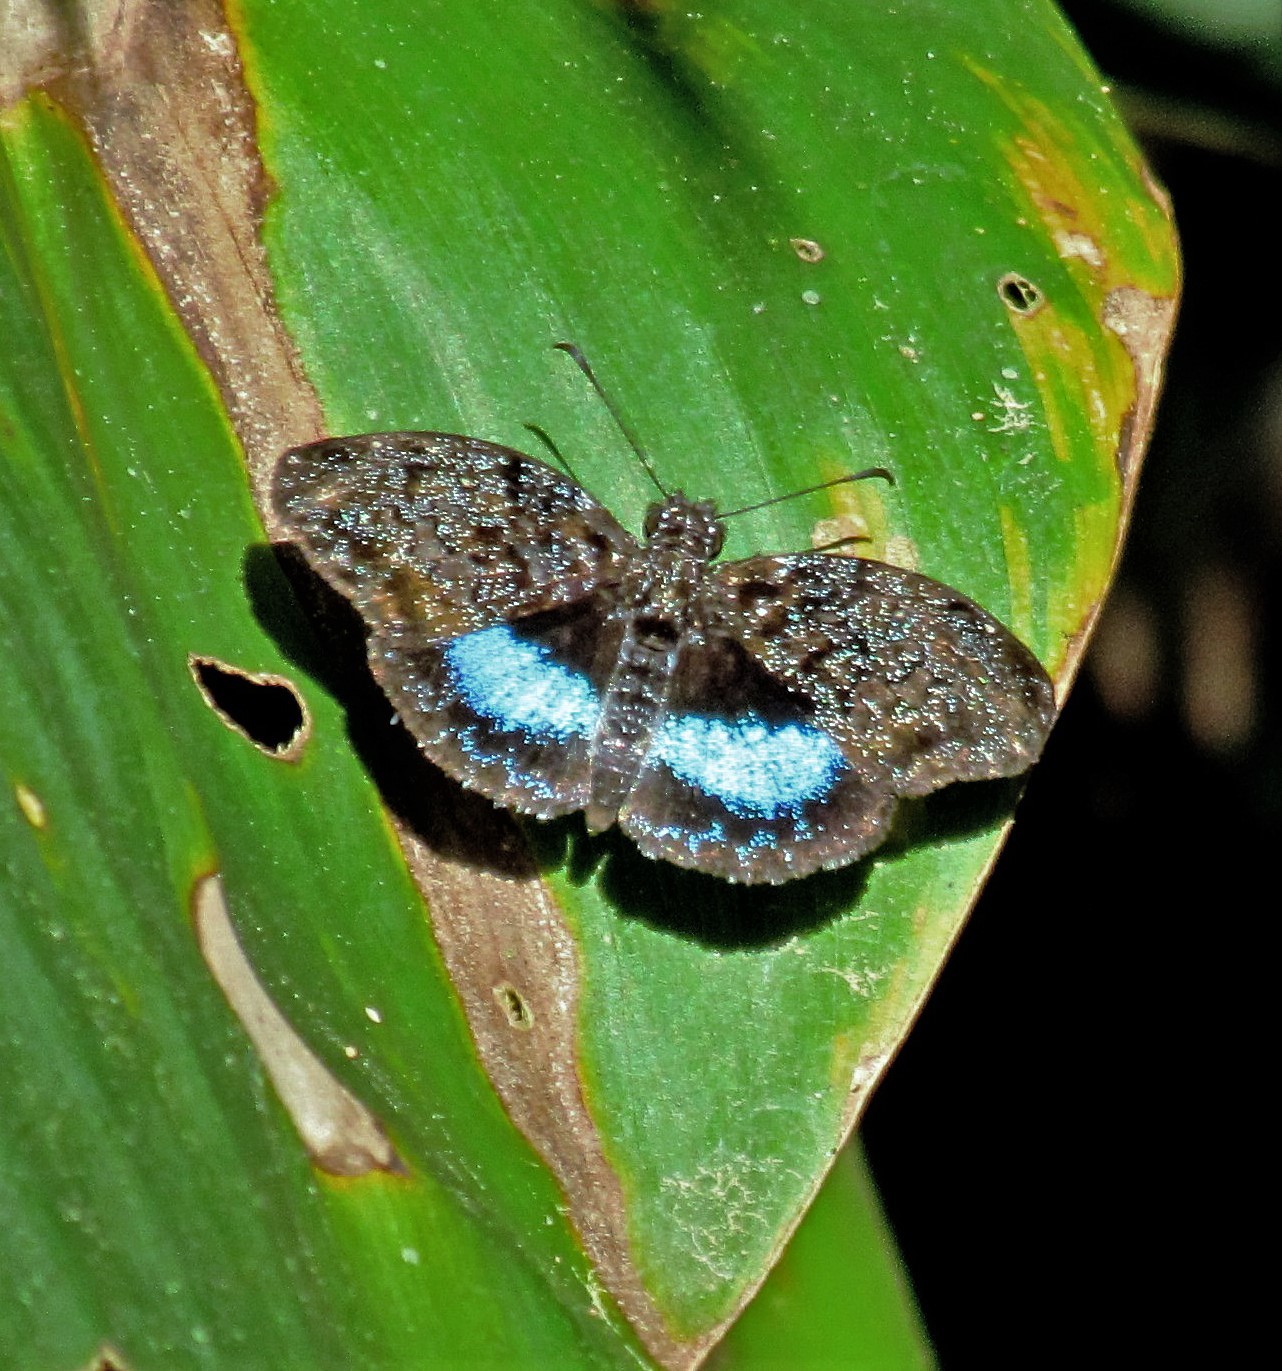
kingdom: Animalia
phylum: Arthropoda
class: Insecta
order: Lepidoptera
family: Hesperiidae
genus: Sostrata
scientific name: Sostrata
